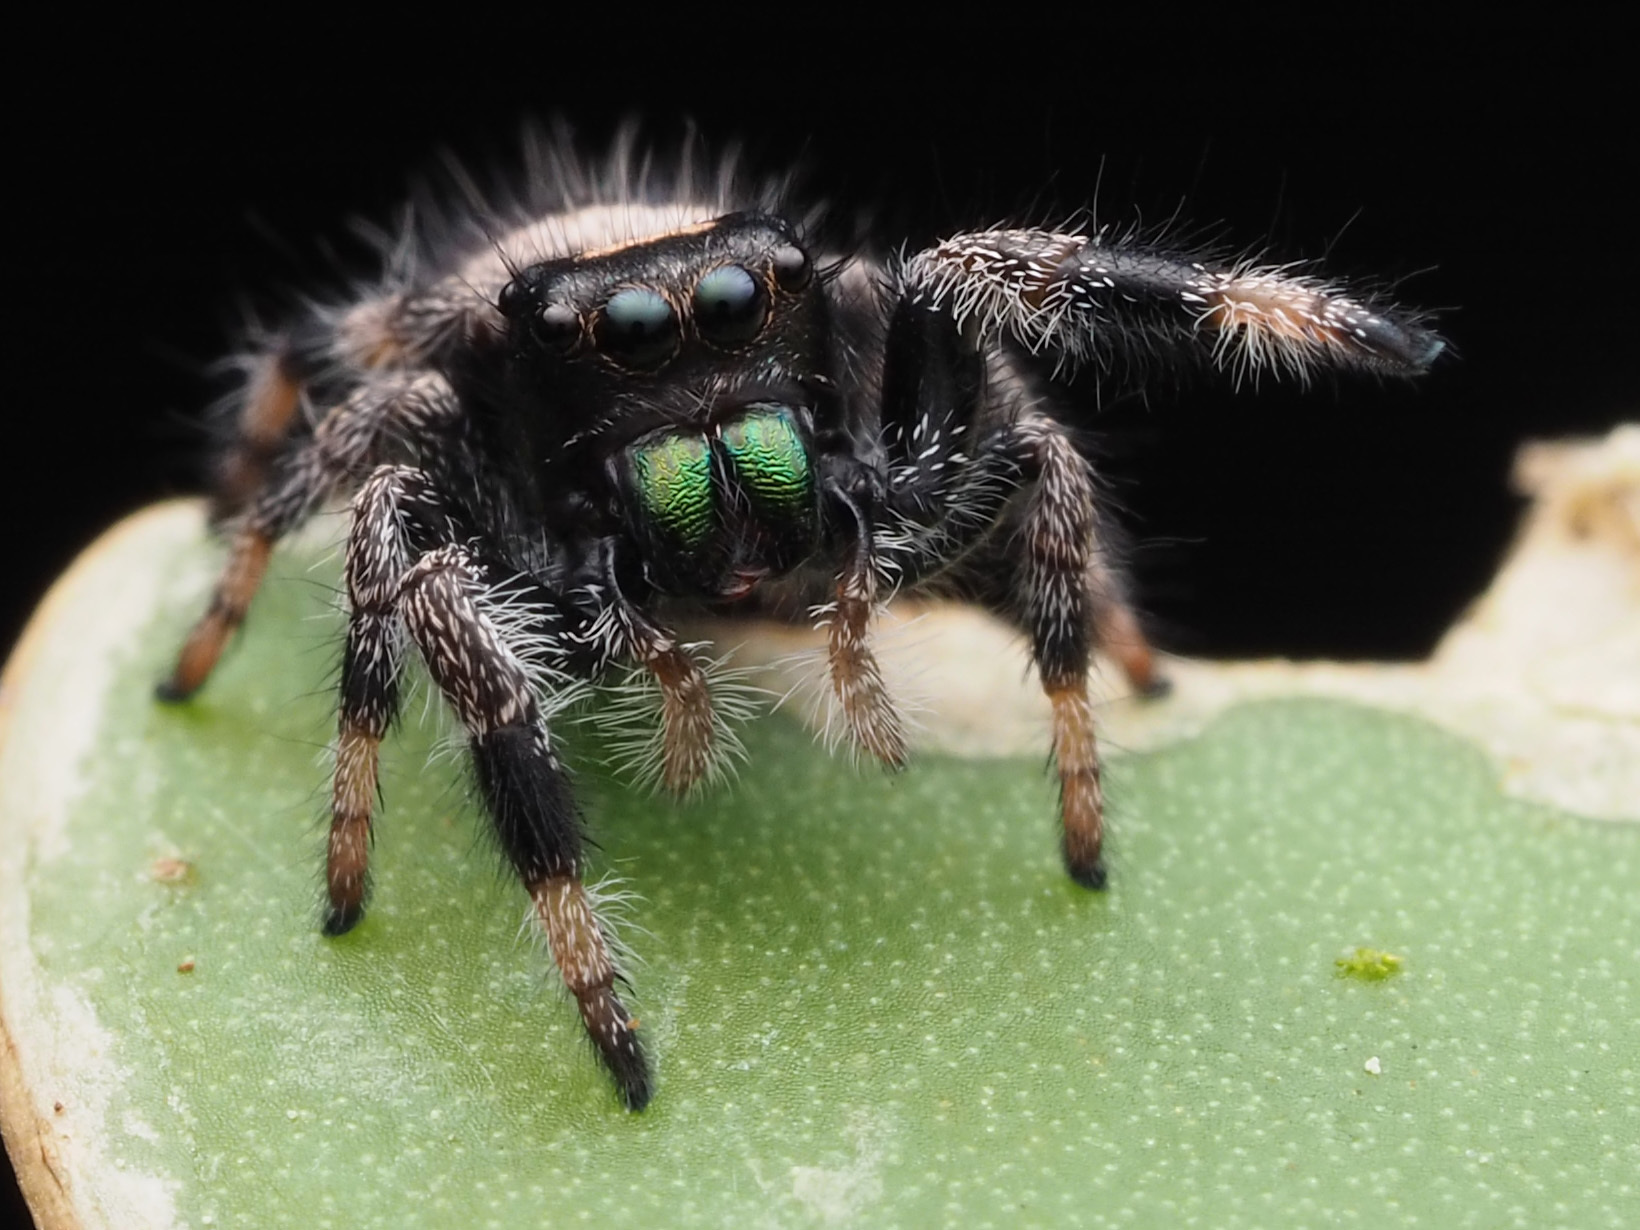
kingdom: Animalia
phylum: Arthropoda
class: Arachnida
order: Araneae
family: Salticidae
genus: Phidippus
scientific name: Phidippus regius
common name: Regal jumper
